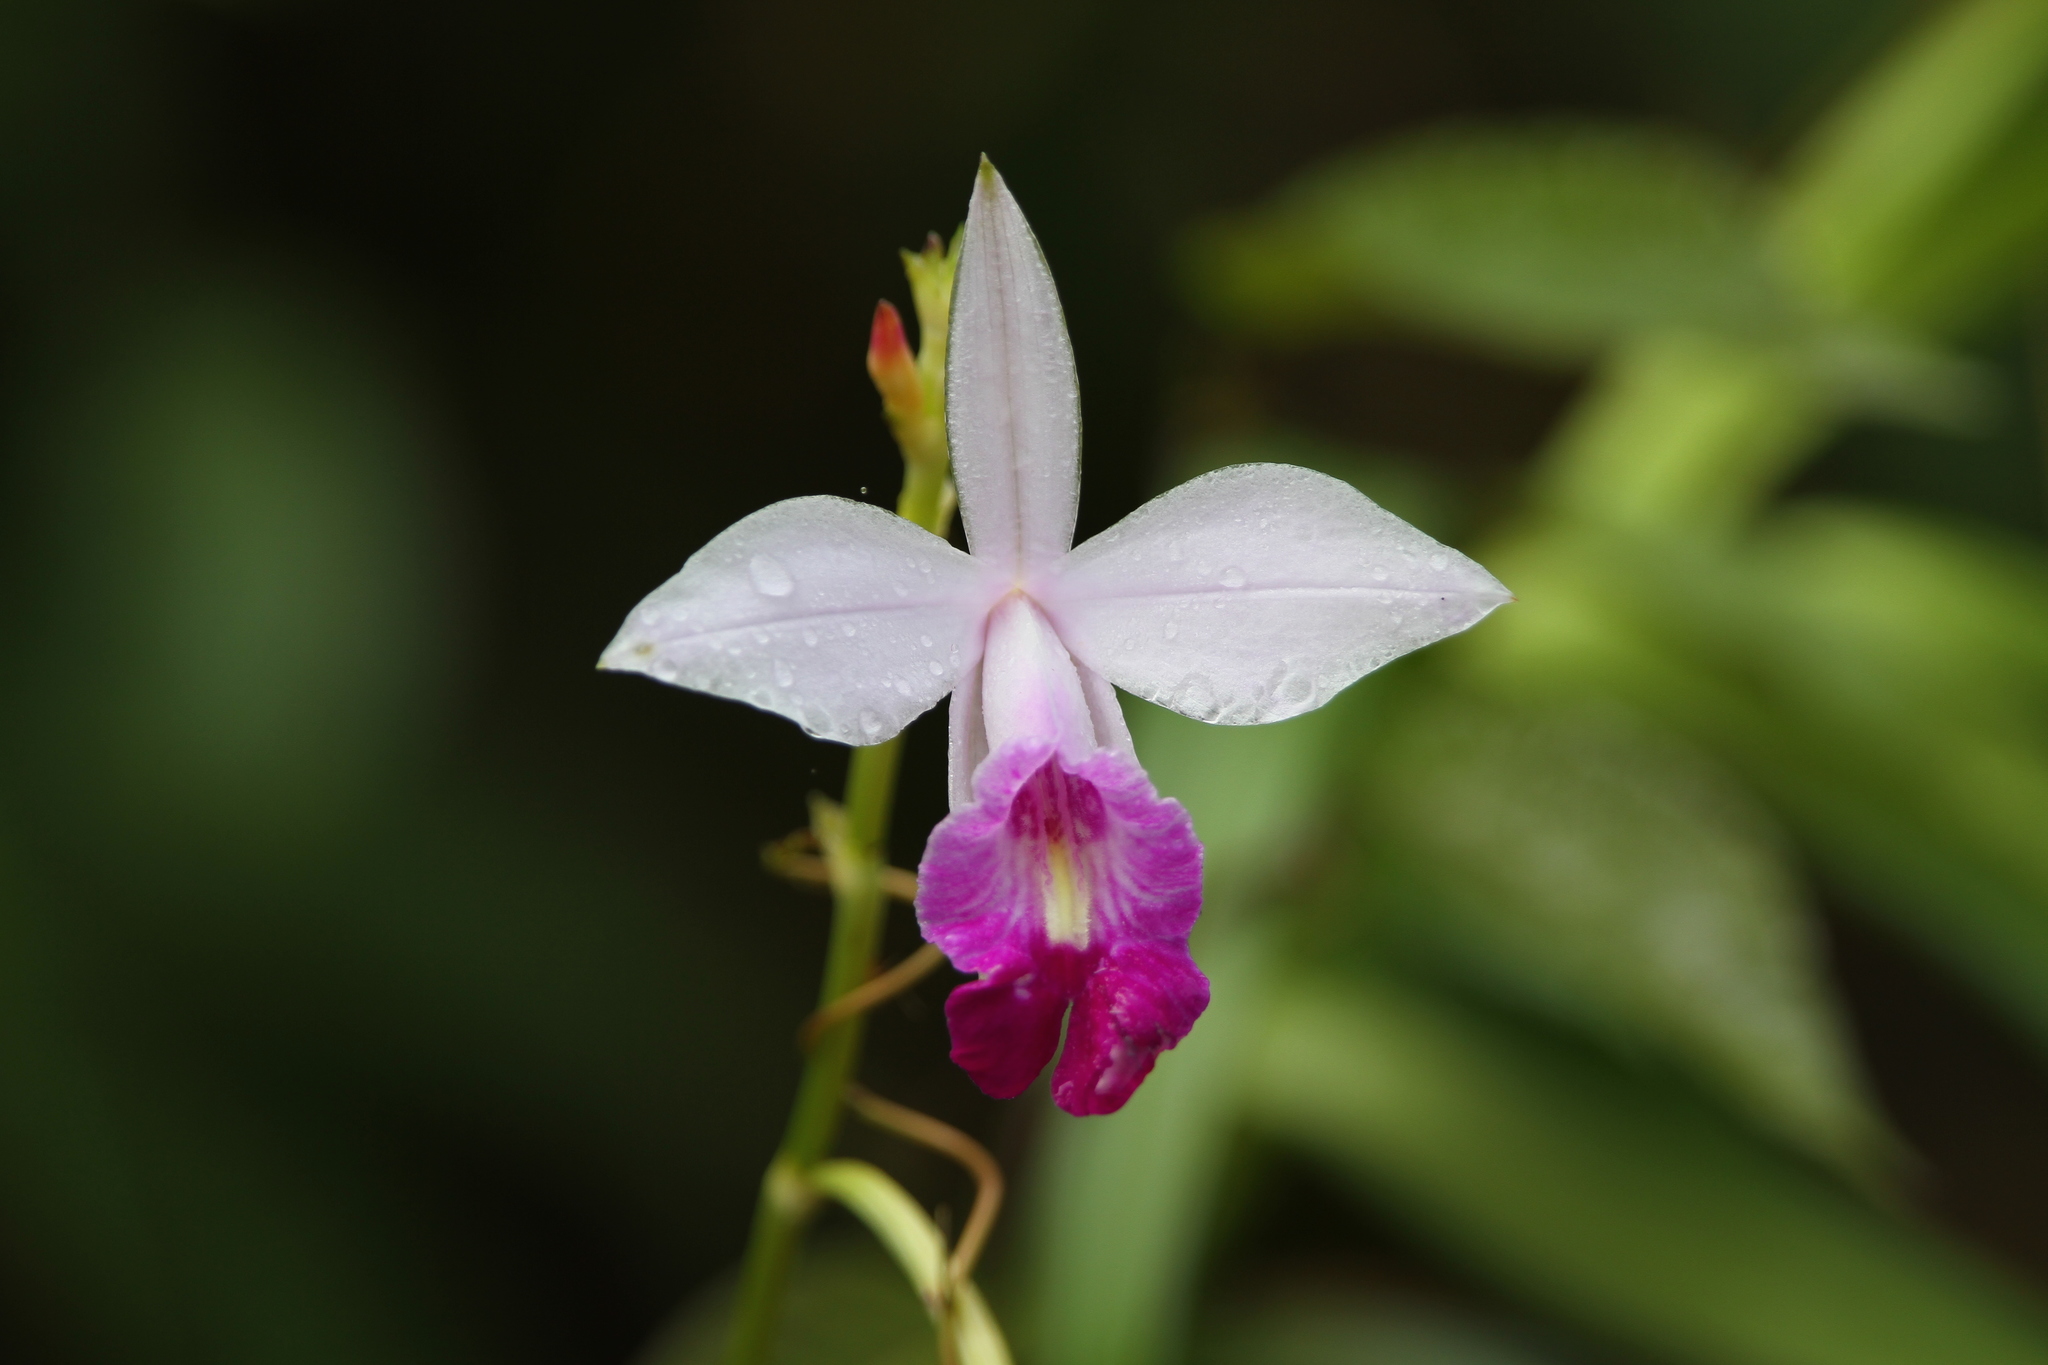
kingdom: Plantae
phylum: Tracheophyta
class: Liliopsida
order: Asparagales
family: Orchidaceae
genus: Arundina
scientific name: Arundina graminifolia
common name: Bamboo orchid
